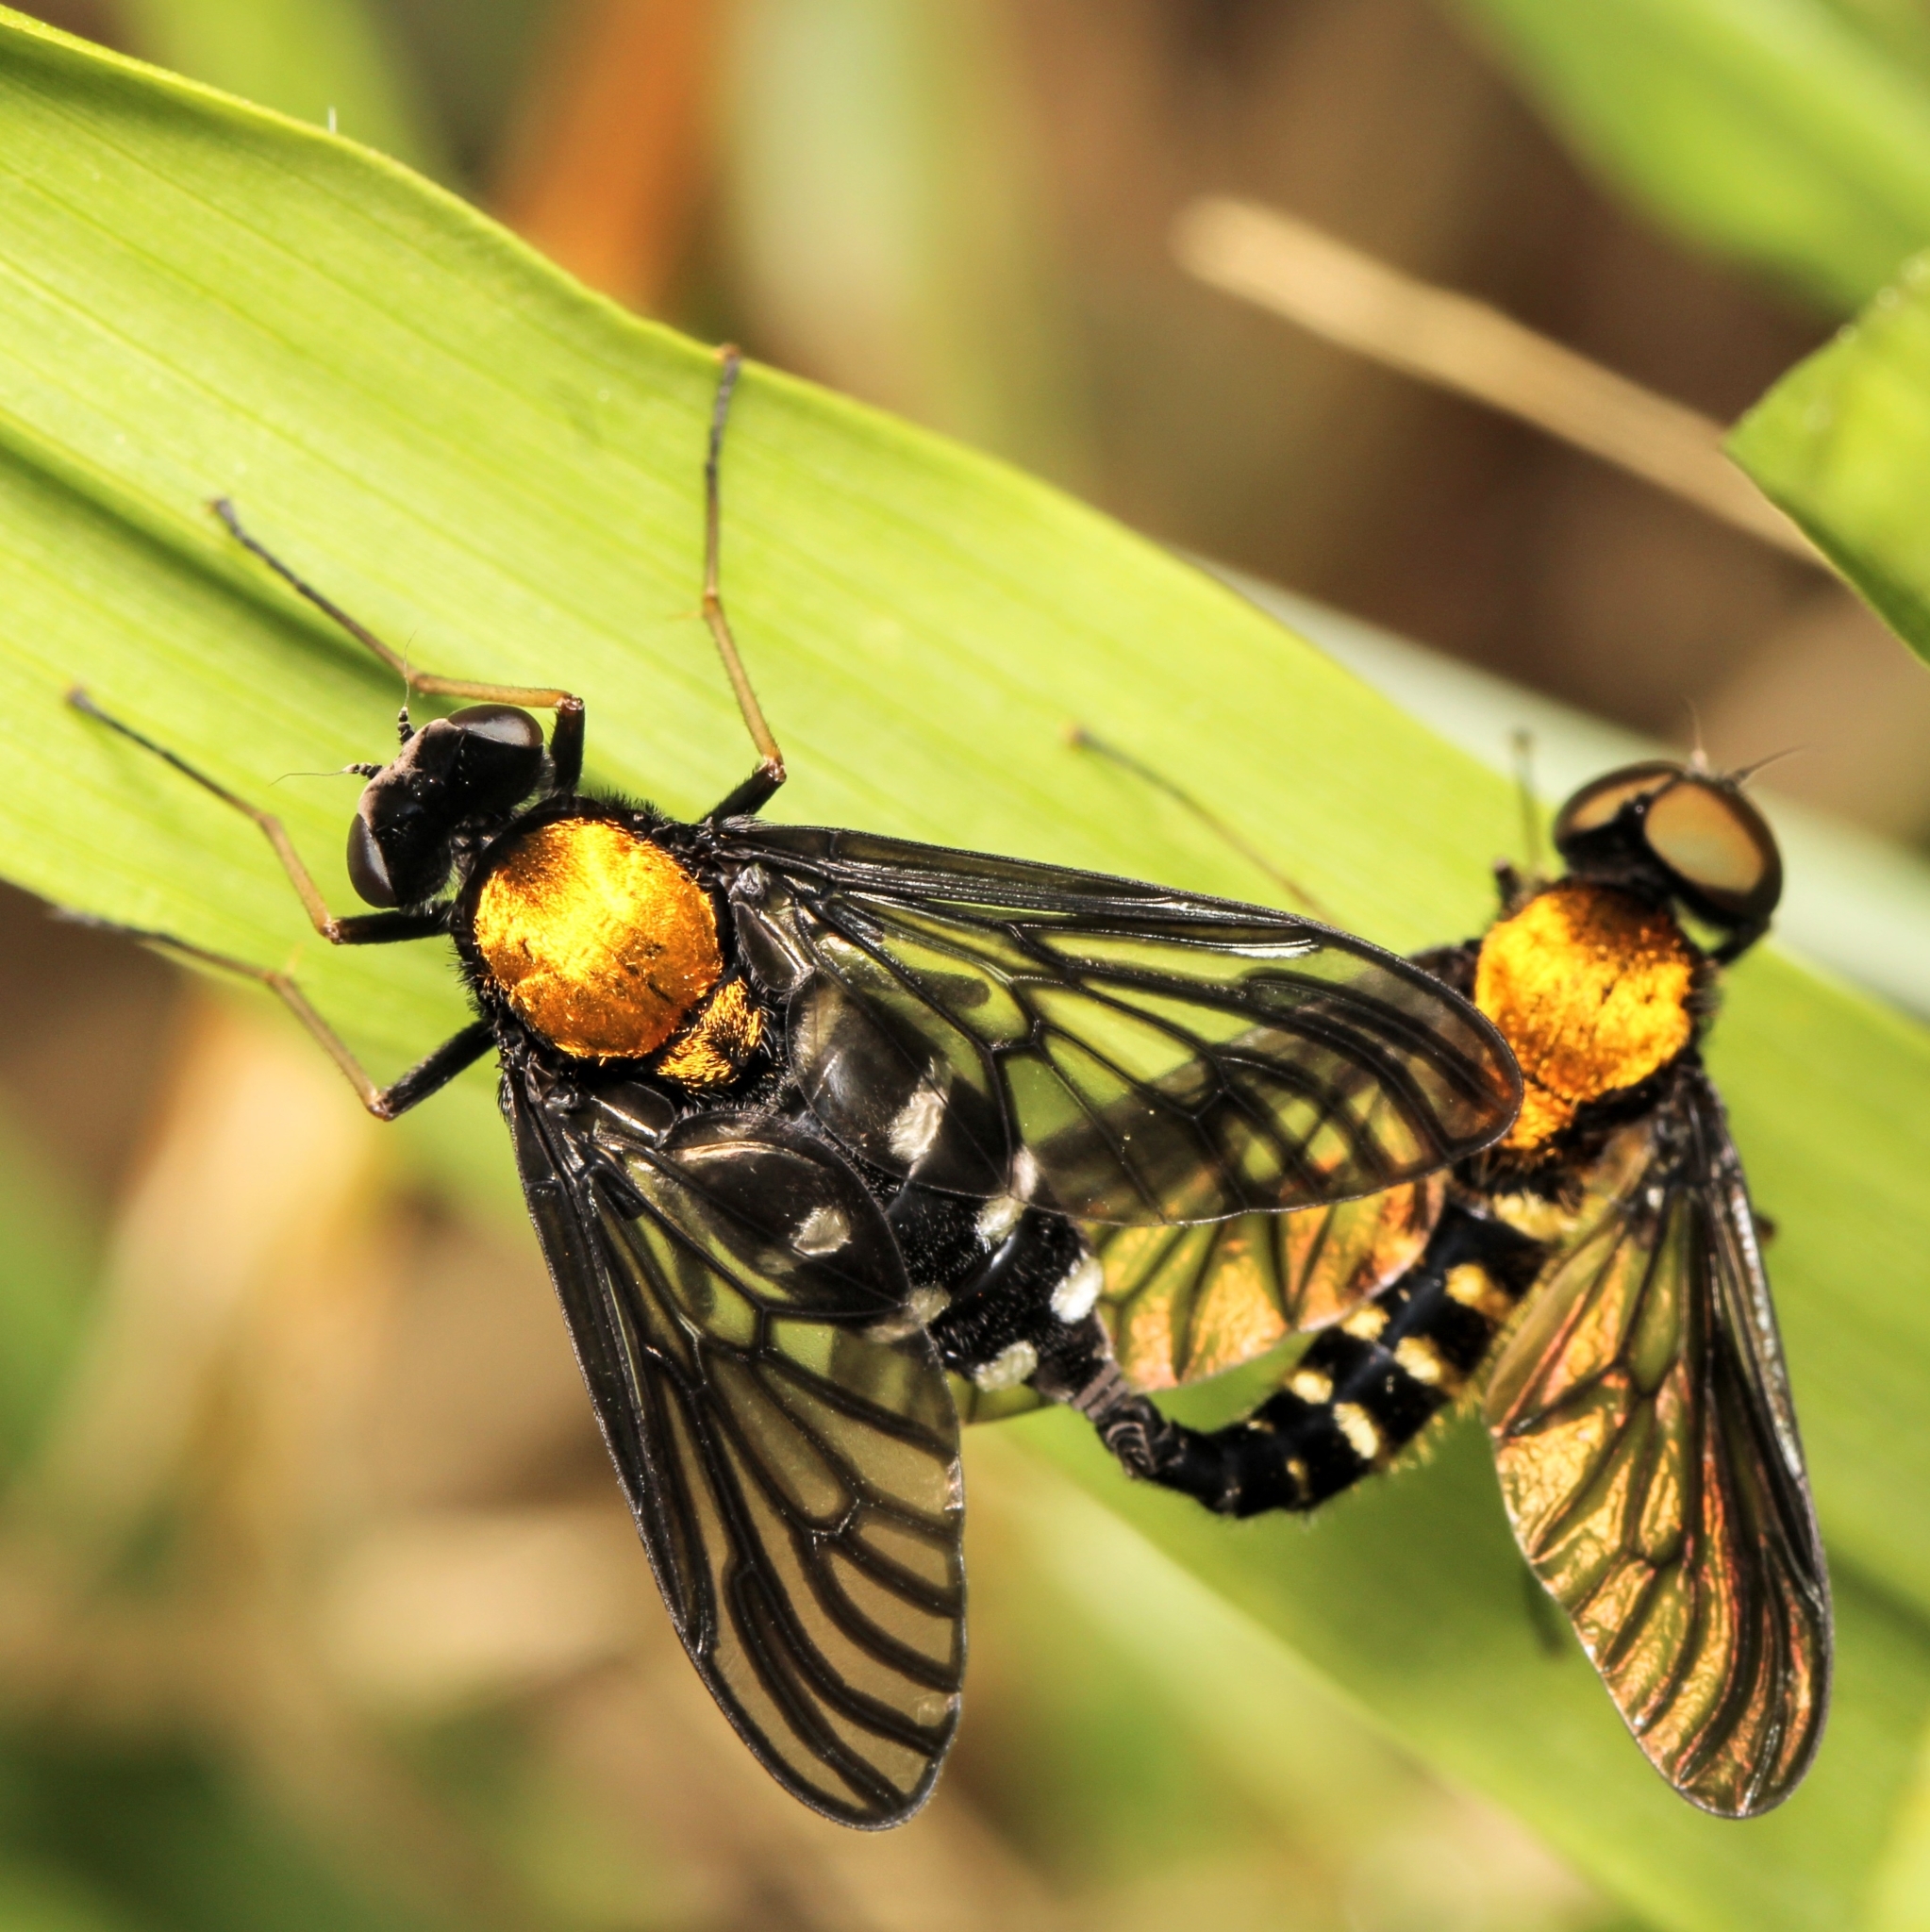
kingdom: Animalia
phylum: Arthropoda
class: Insecta
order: Diptera
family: Rhagionidae
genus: Chrysopilus
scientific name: Chrysopilus thoracicus
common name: Golden-backed snipe fly
